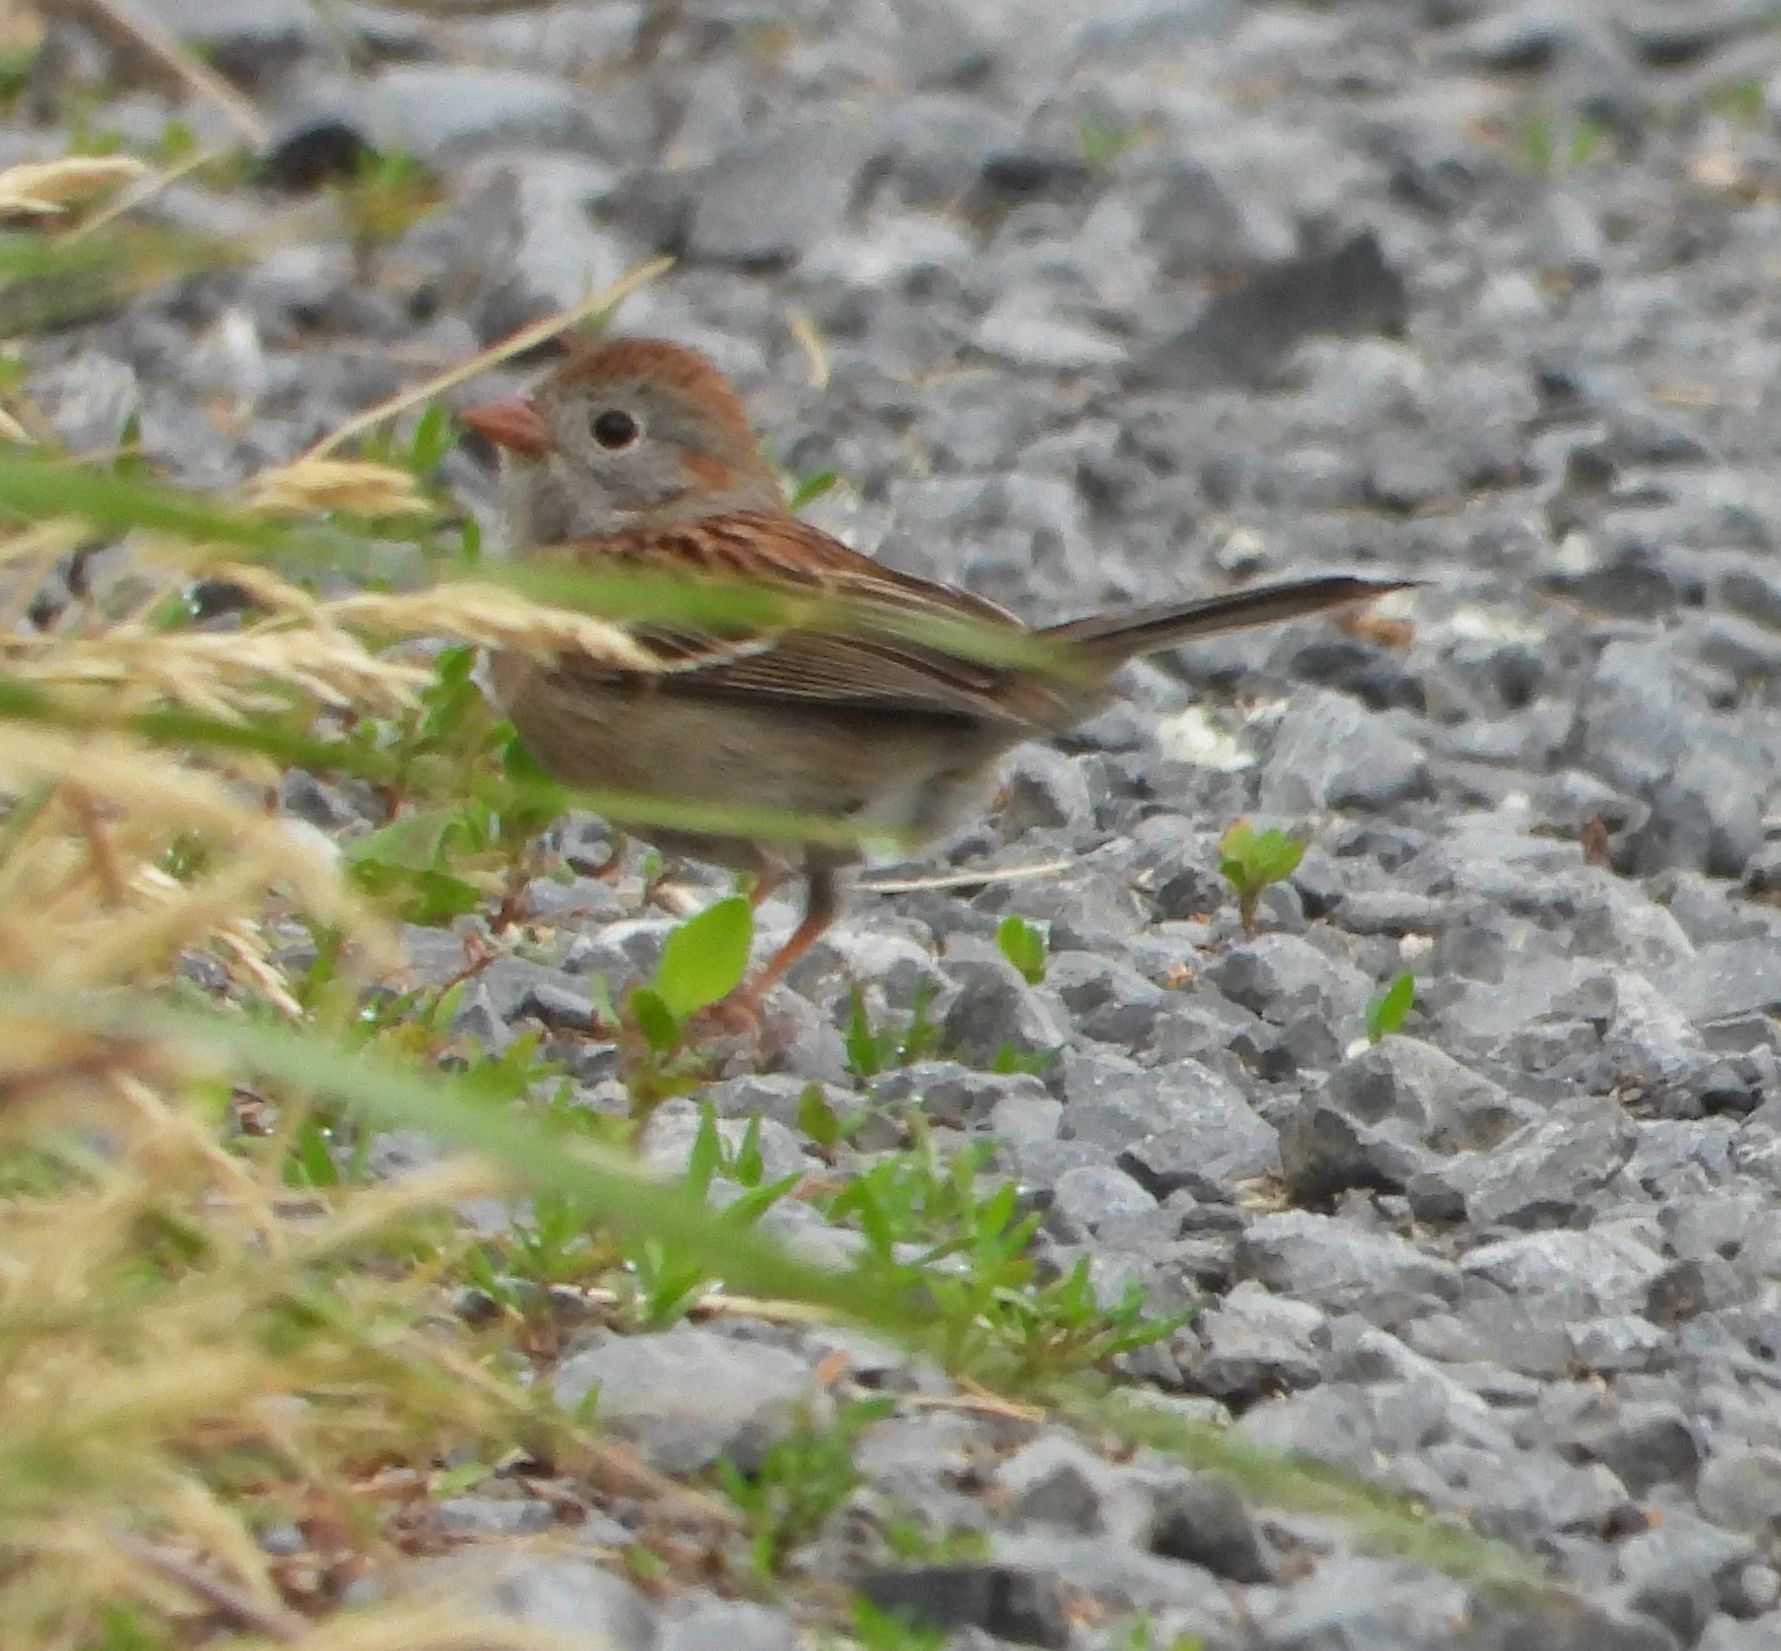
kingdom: Animalia
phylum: Chordata
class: Aves
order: Passeriformes
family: Passerellidae
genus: Spizella
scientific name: Spizella pusilla
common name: Field sparrow
